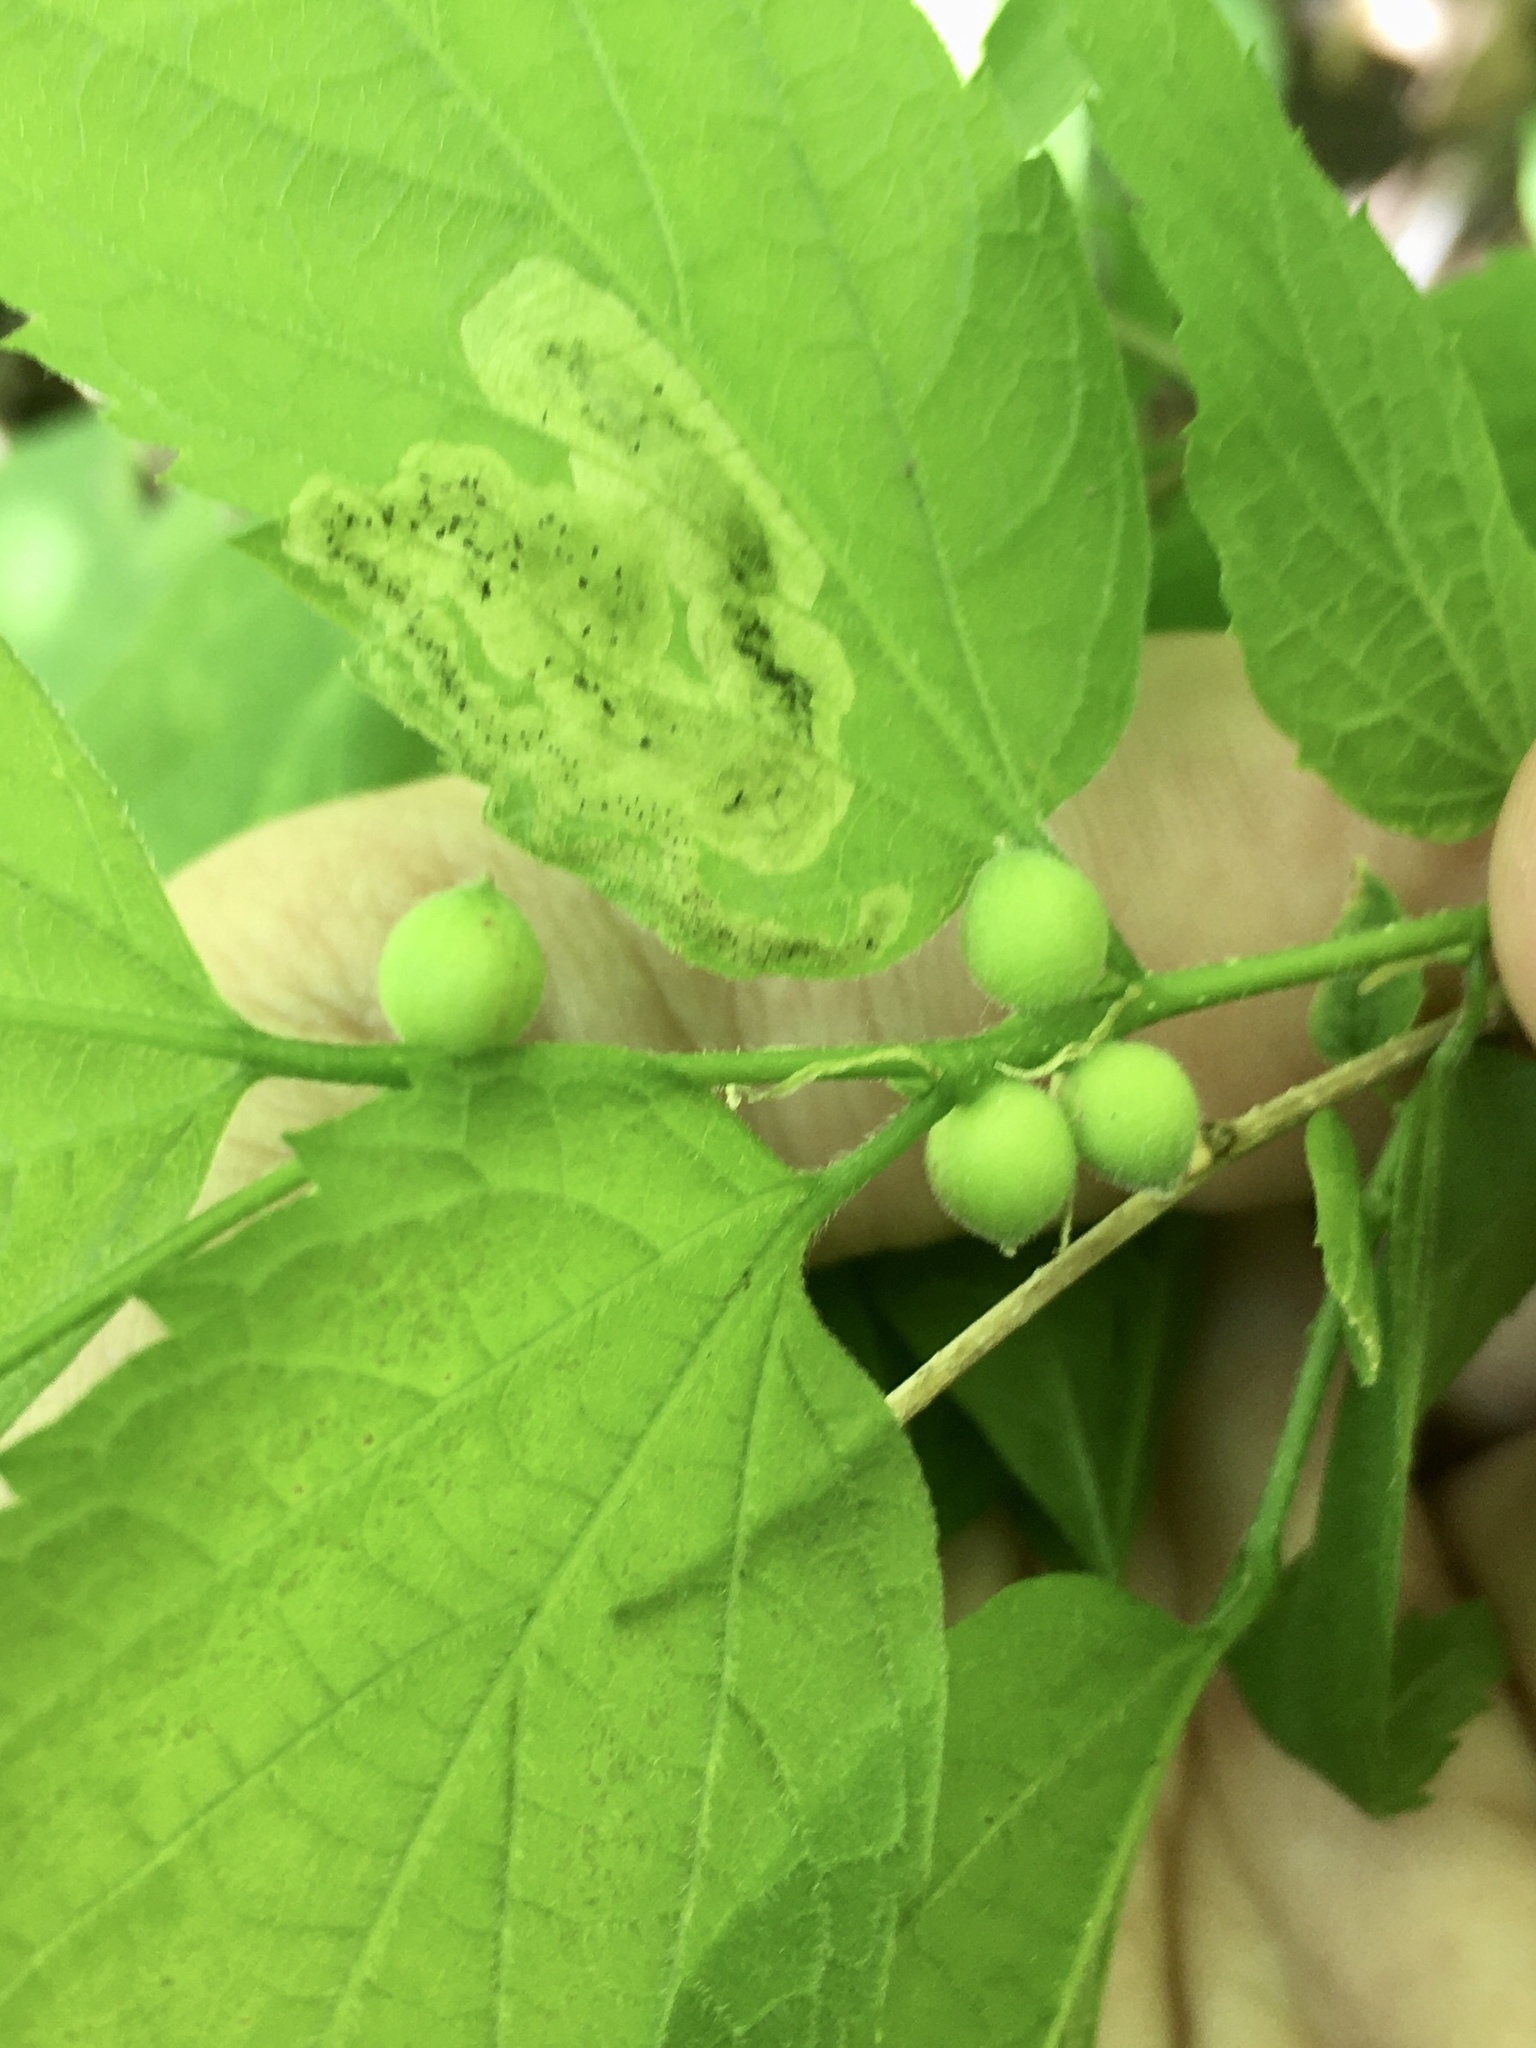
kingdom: Animalia
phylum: Arthropoda
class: Insecta
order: Diptera
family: Cecidomyiidae
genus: Celticecis
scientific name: Celticecis oviformis
